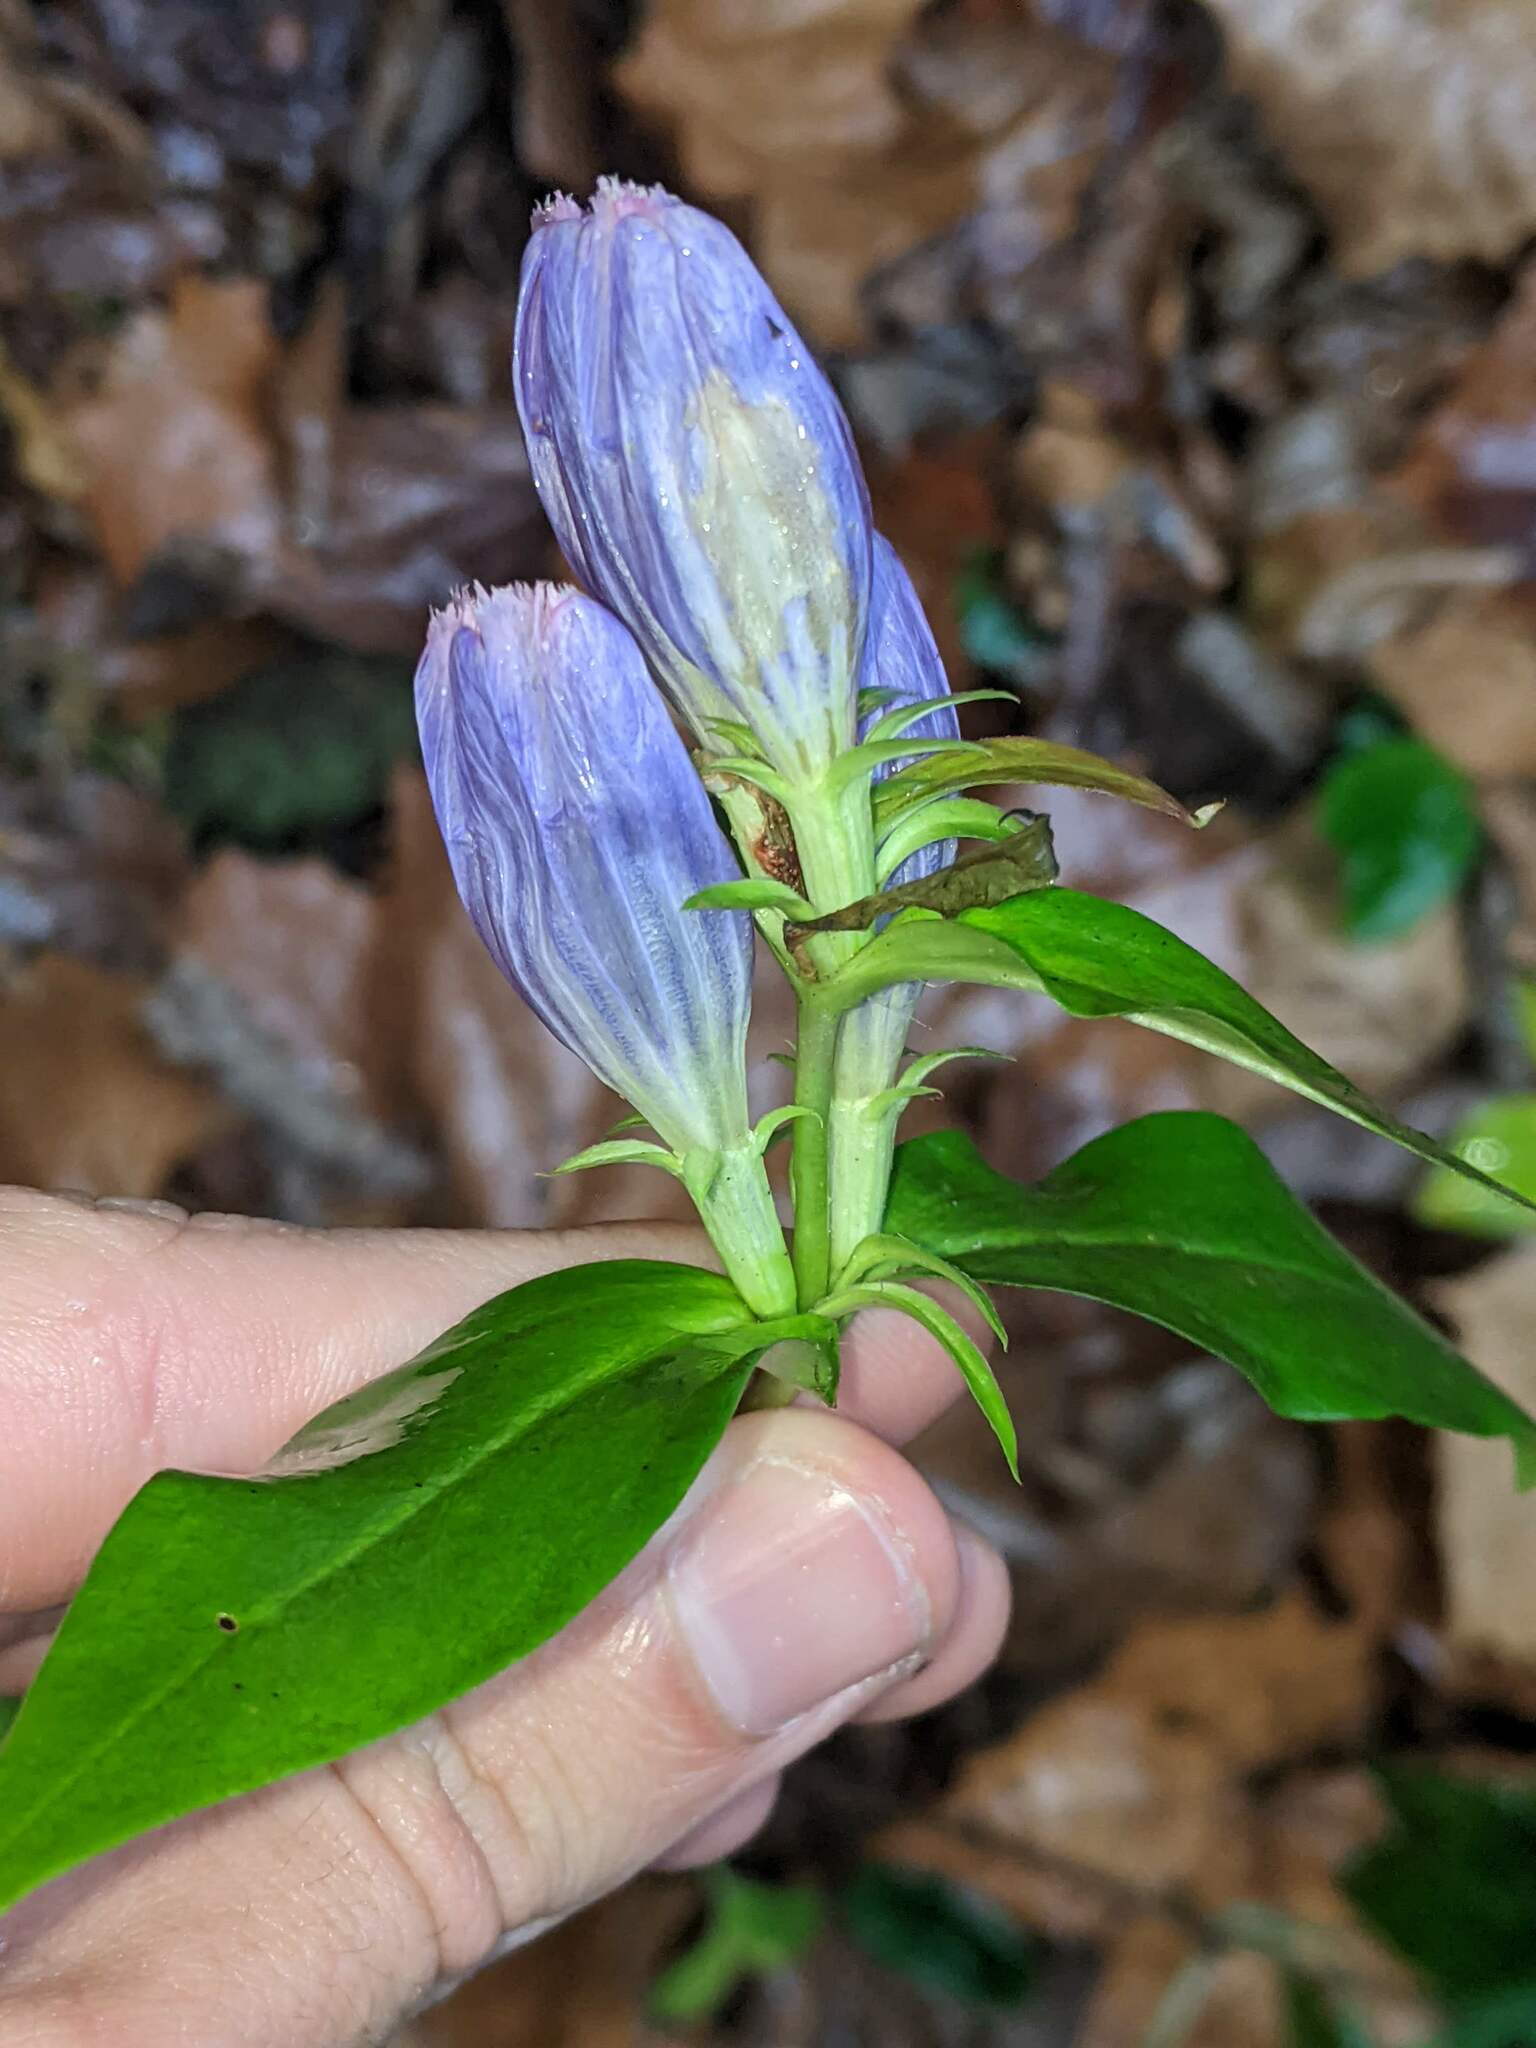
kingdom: Plantae
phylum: Tracheophyta
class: Magnoliopsida
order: Gentianales
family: Gentianaceae
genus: Gentiana
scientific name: Gentiana andrewsii
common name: Bottle gentian
